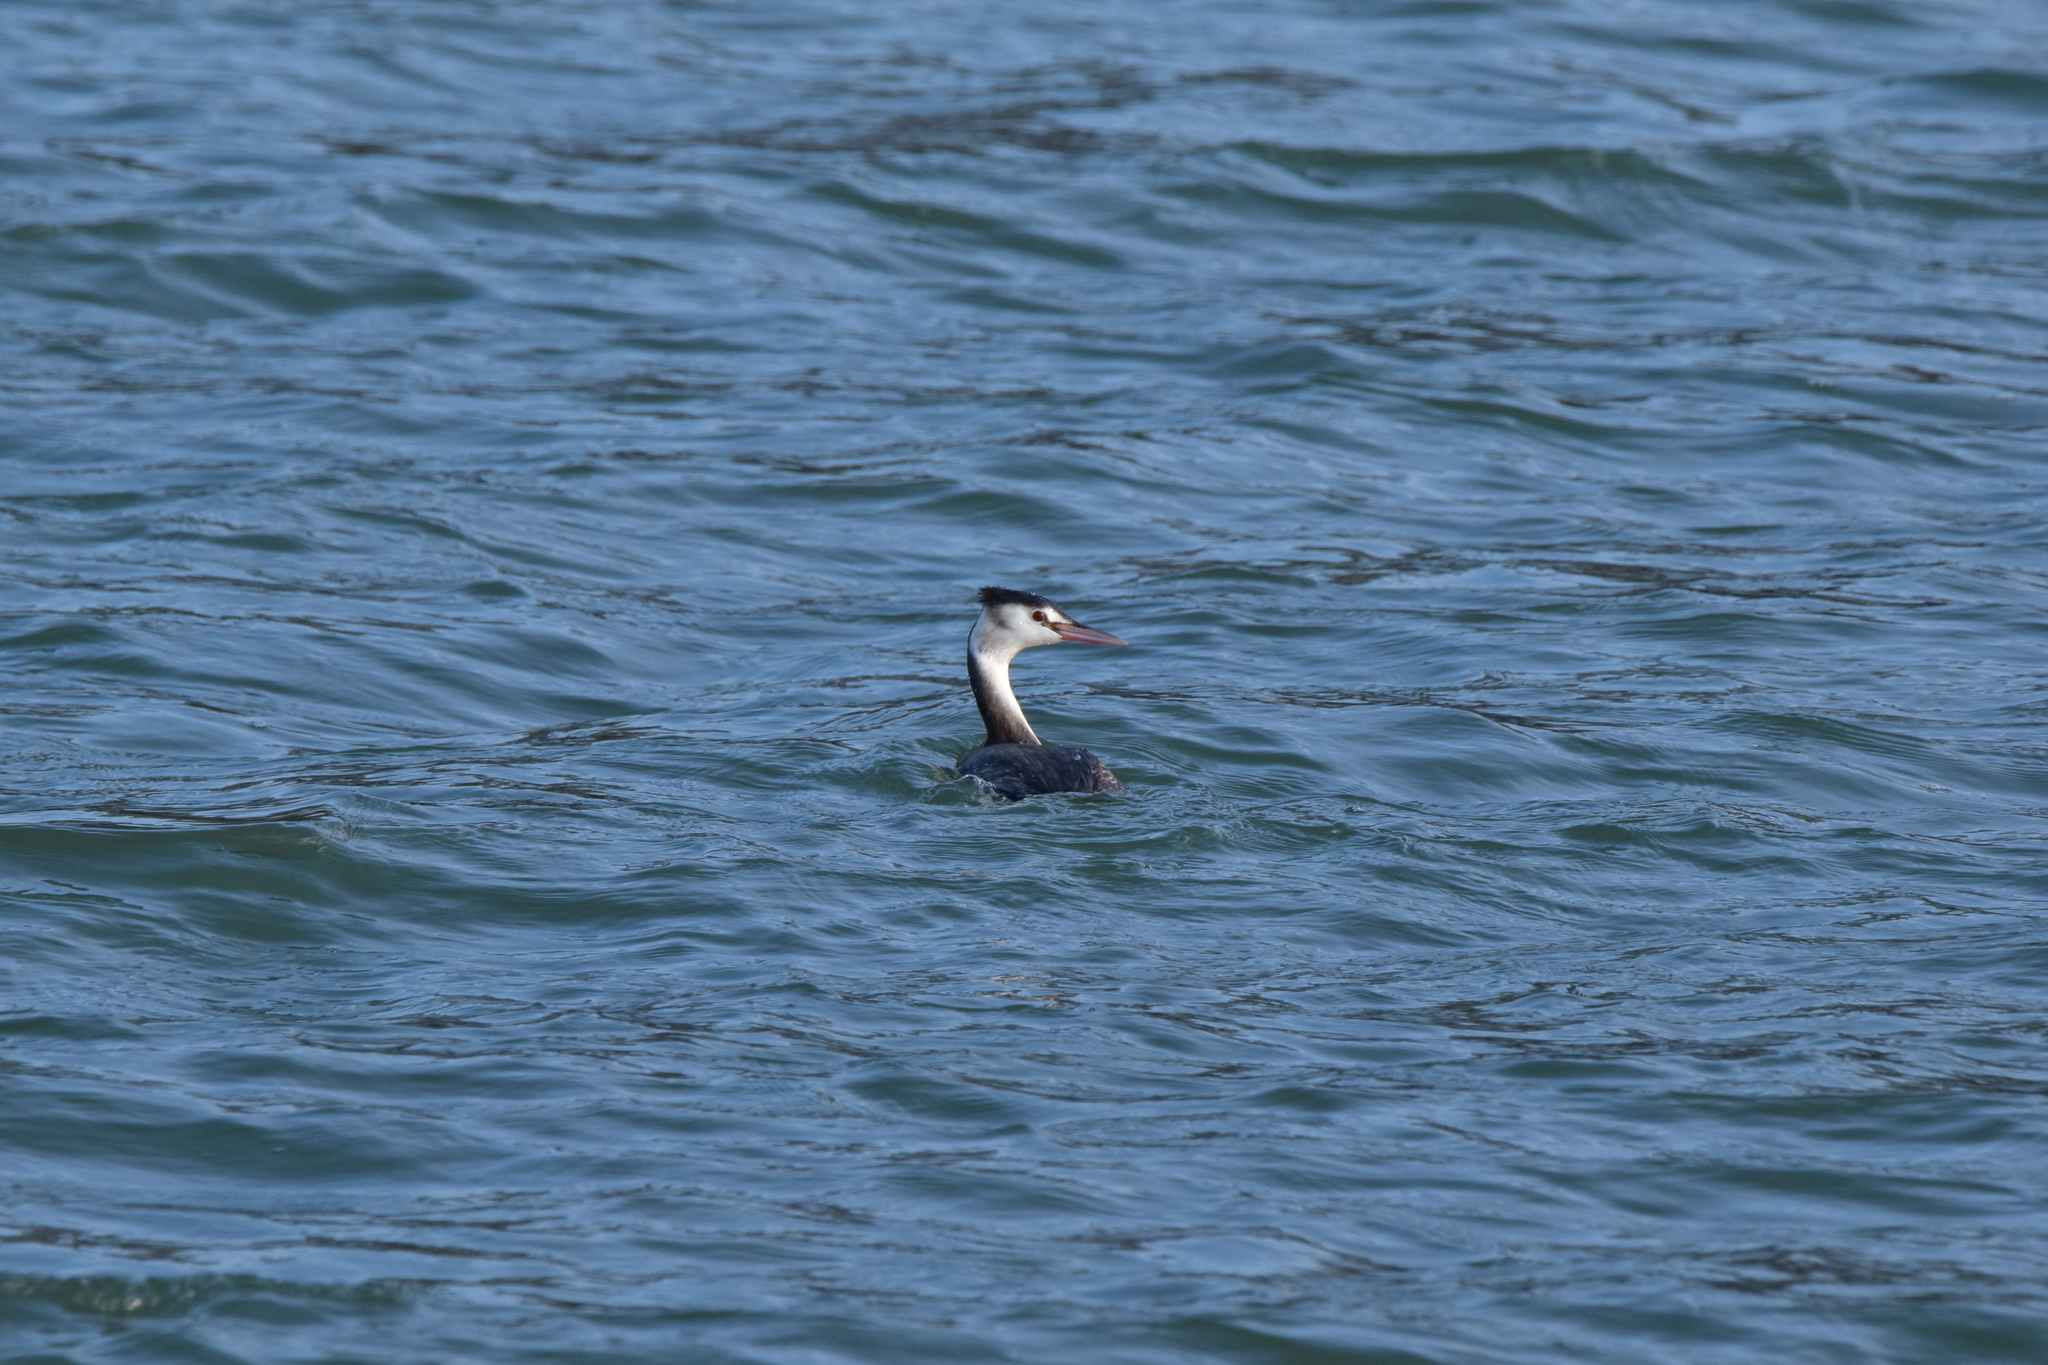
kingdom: Animalia
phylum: Chordata
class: Aves
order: Podicipediformes
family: Podicipedidae
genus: Podiceps
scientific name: Podiceps cristatus
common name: Great crested grebe
